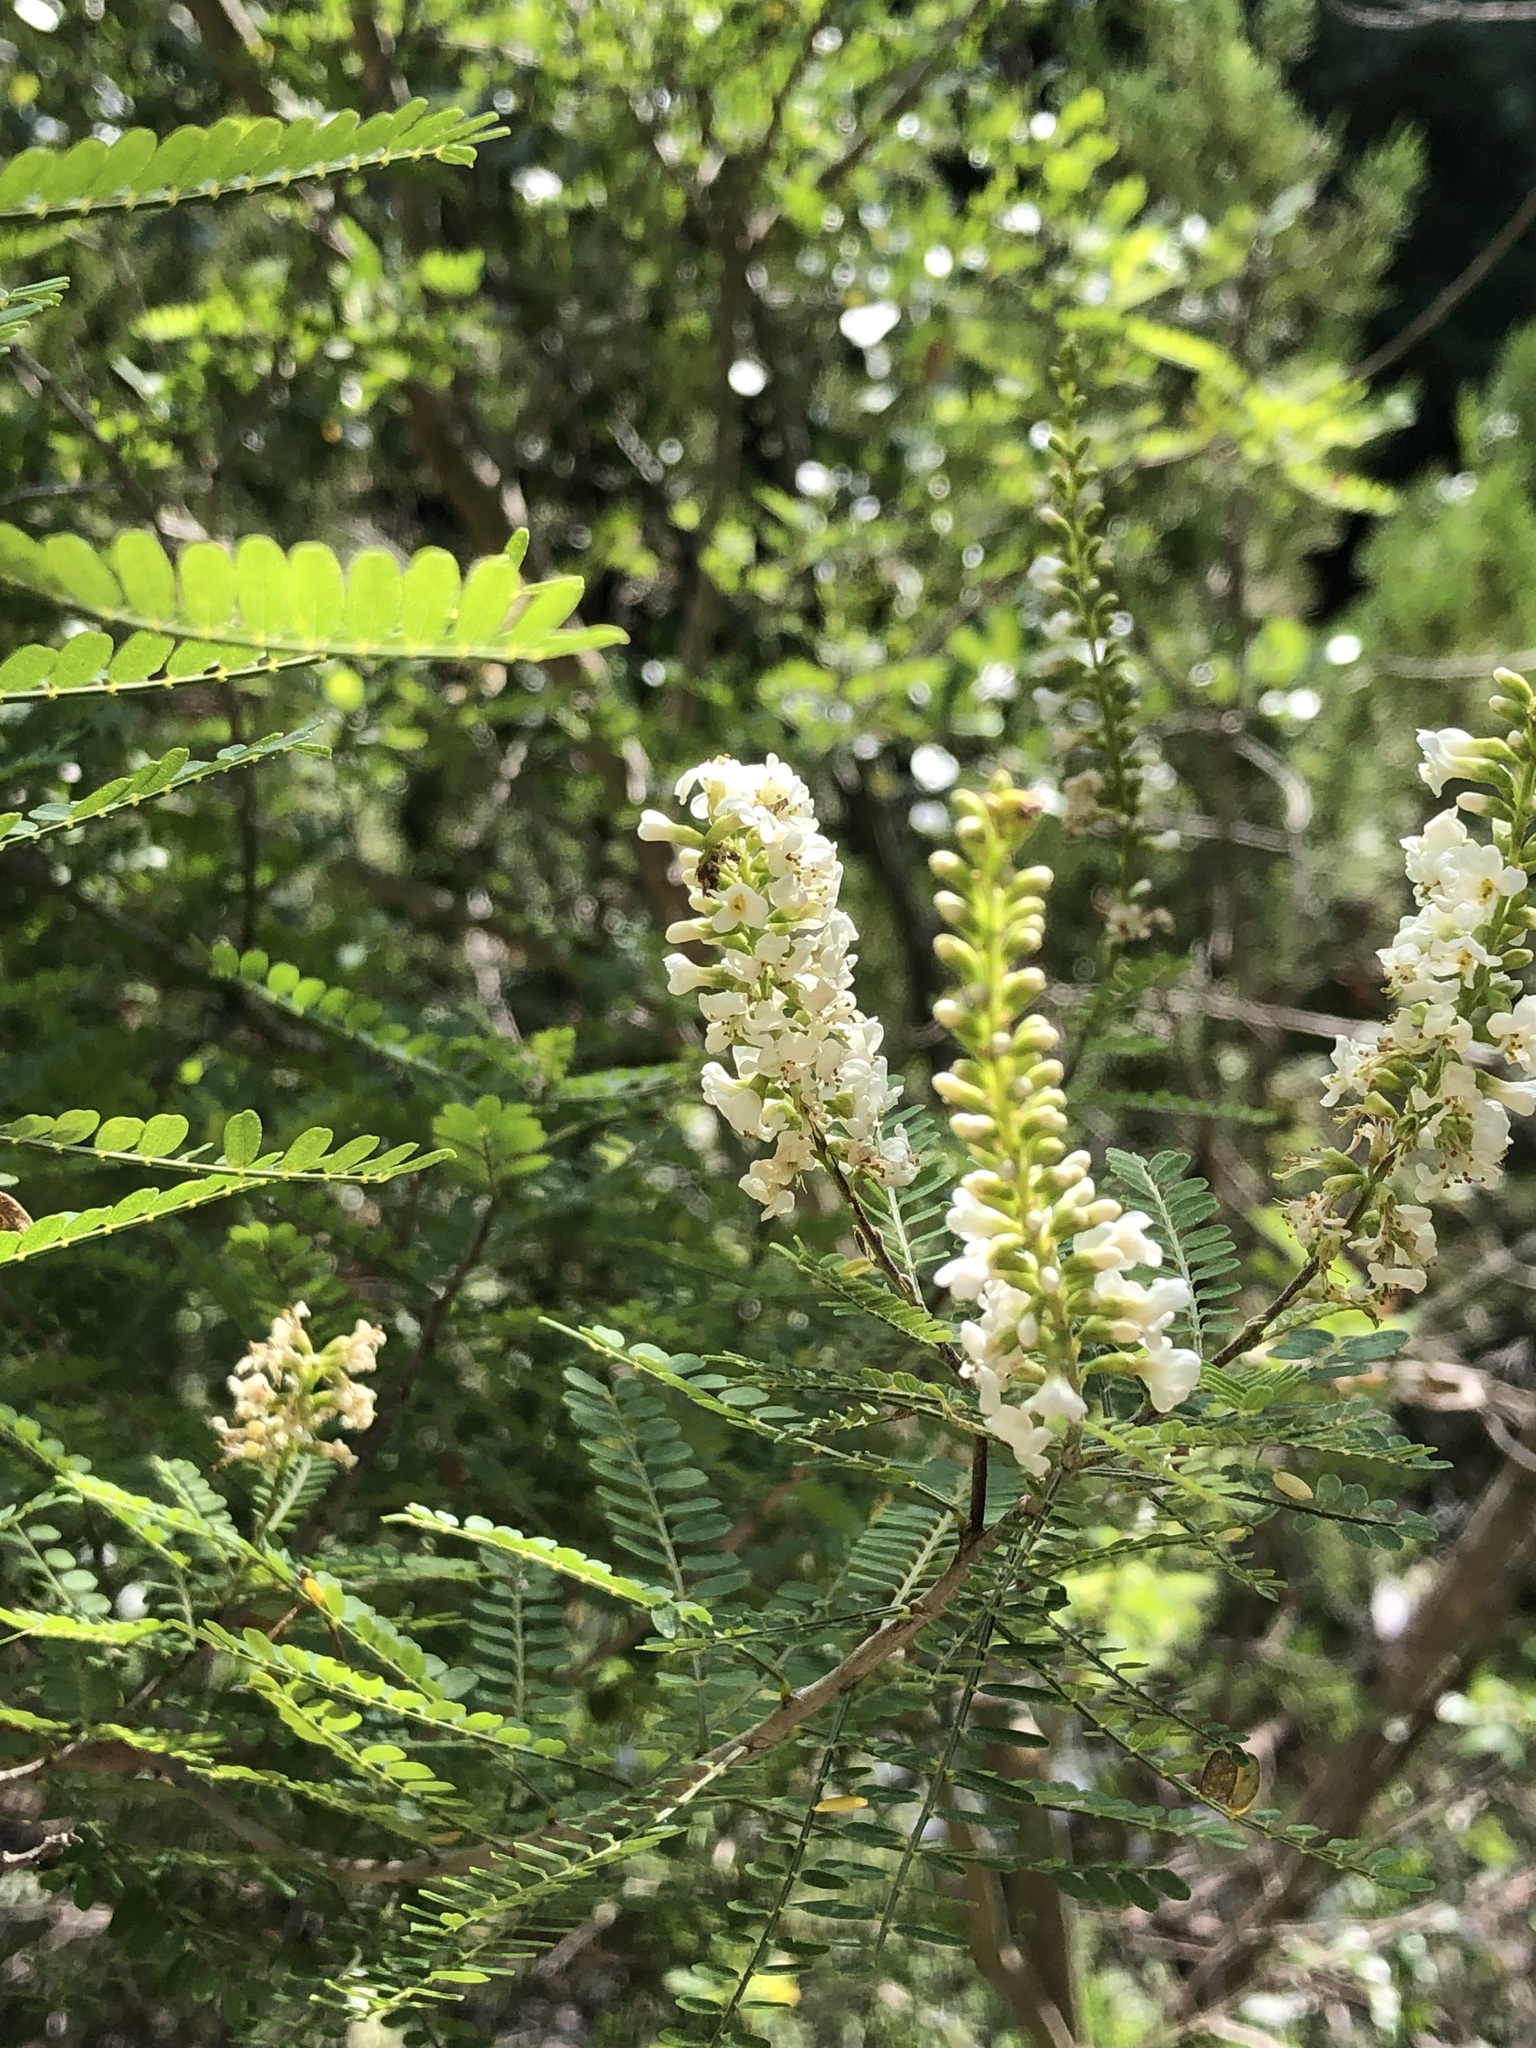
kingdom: Plantae
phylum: Tracheophyta
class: Magnoliopsida
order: Fabales
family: Fabaceae
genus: Eysenhardtia
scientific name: Eysenhardtia texana
